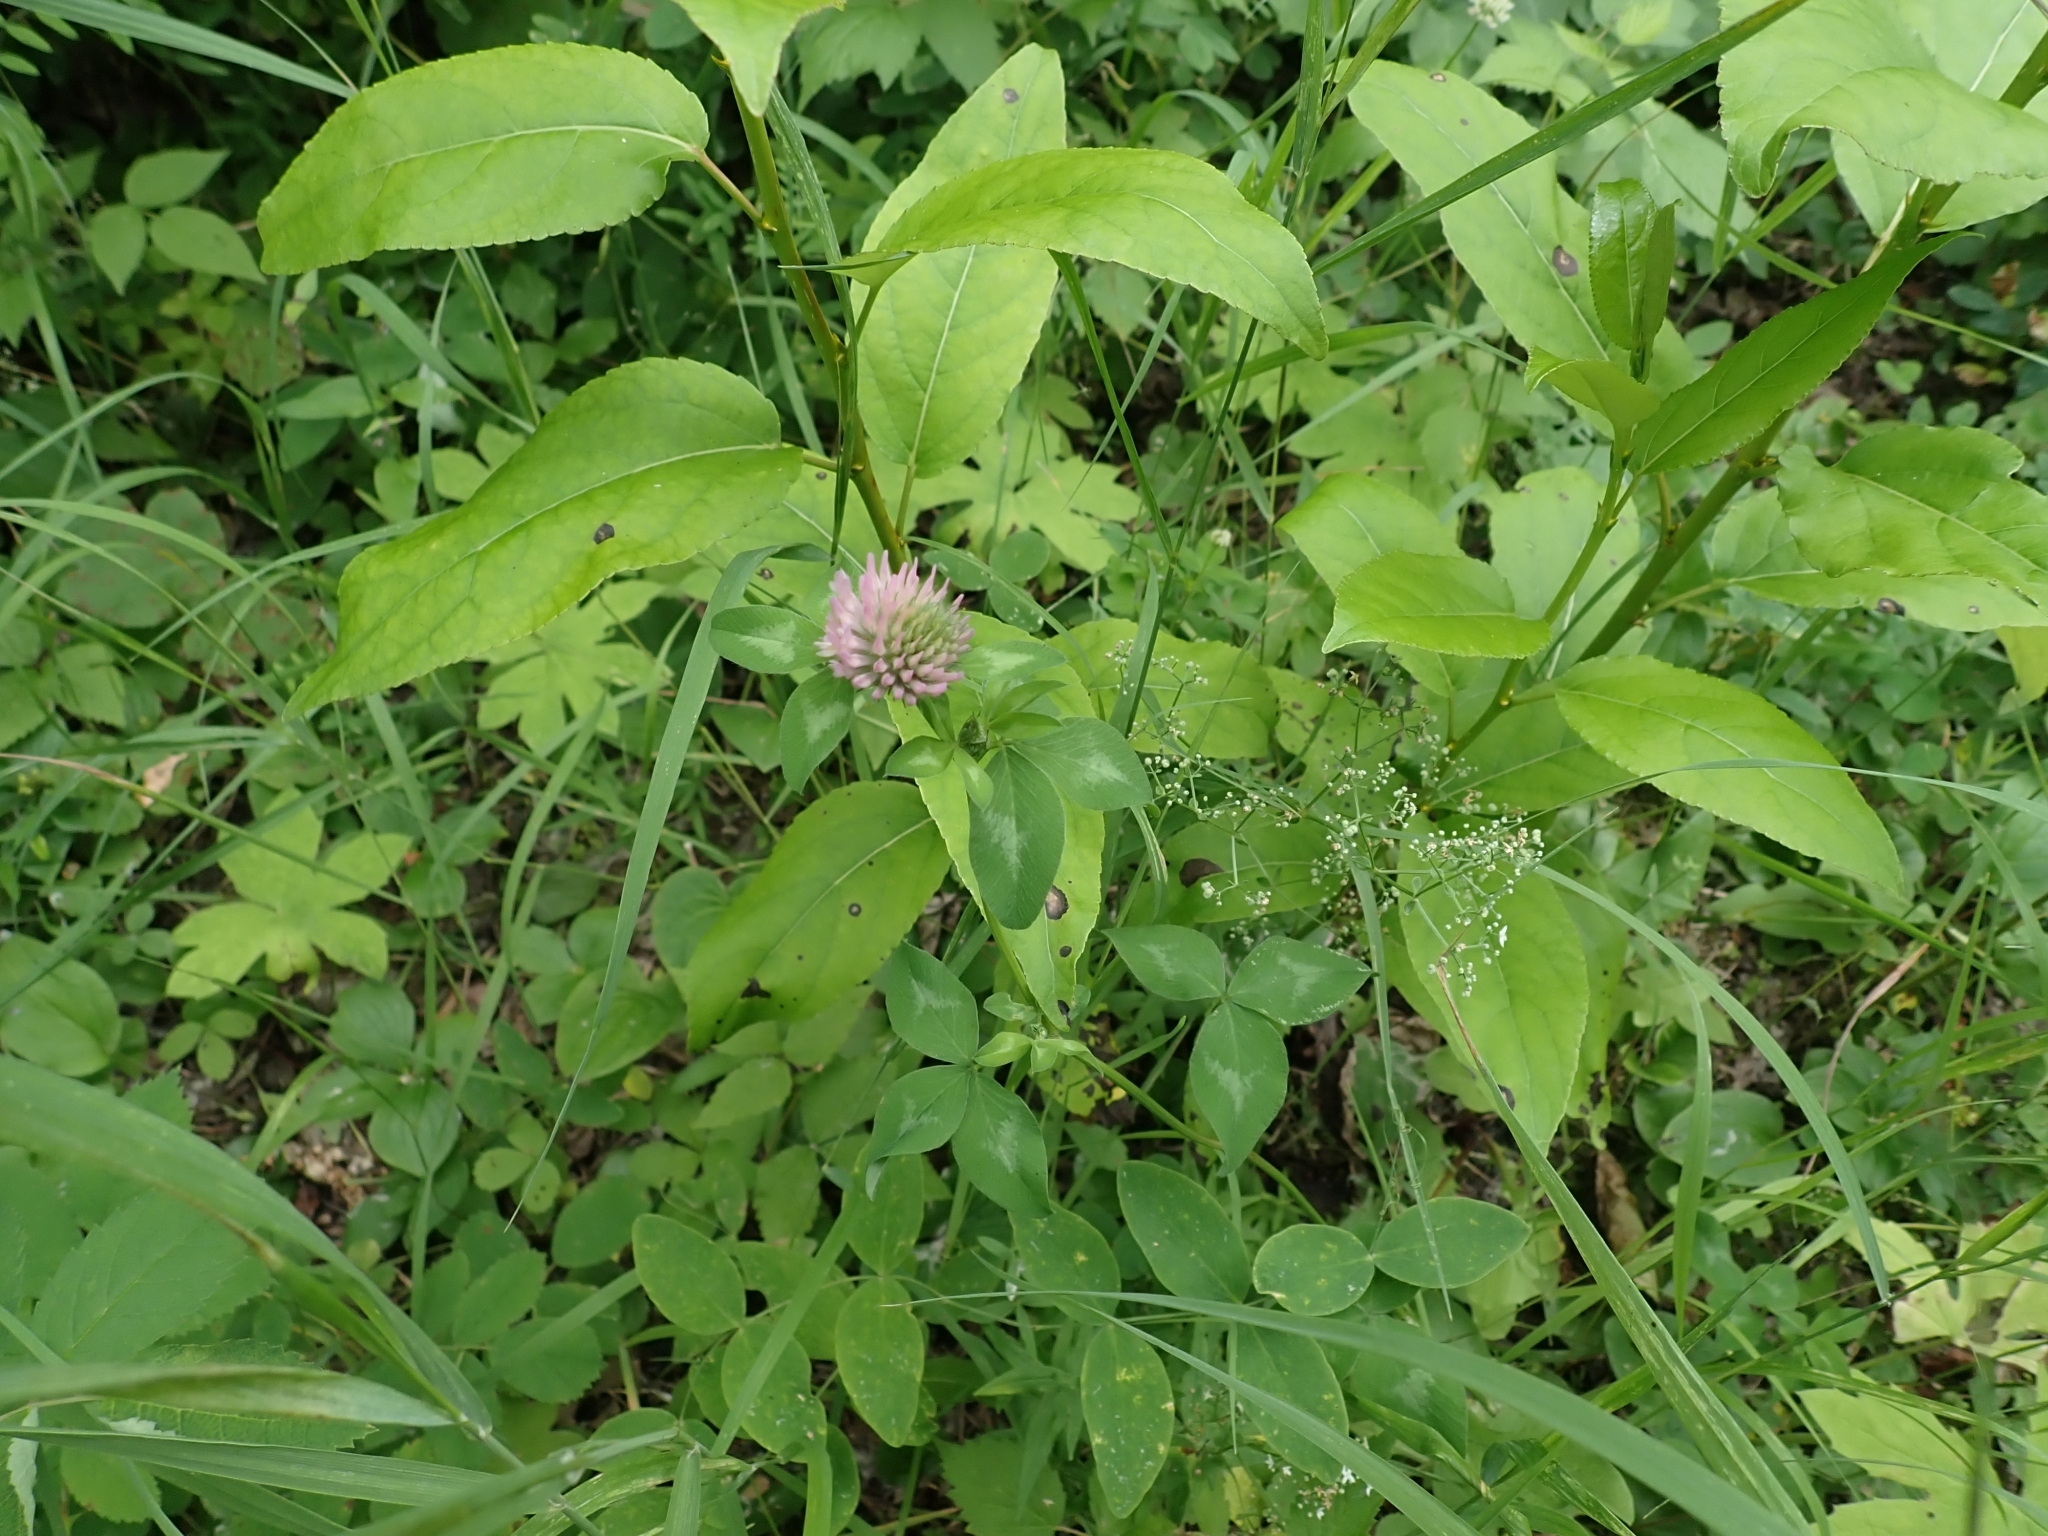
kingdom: Plantae
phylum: Tracheophyta
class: Magnoliopsida
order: Fabales
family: Fabaceae
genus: Trifolium
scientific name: Trifolium pratense
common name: Red clover
